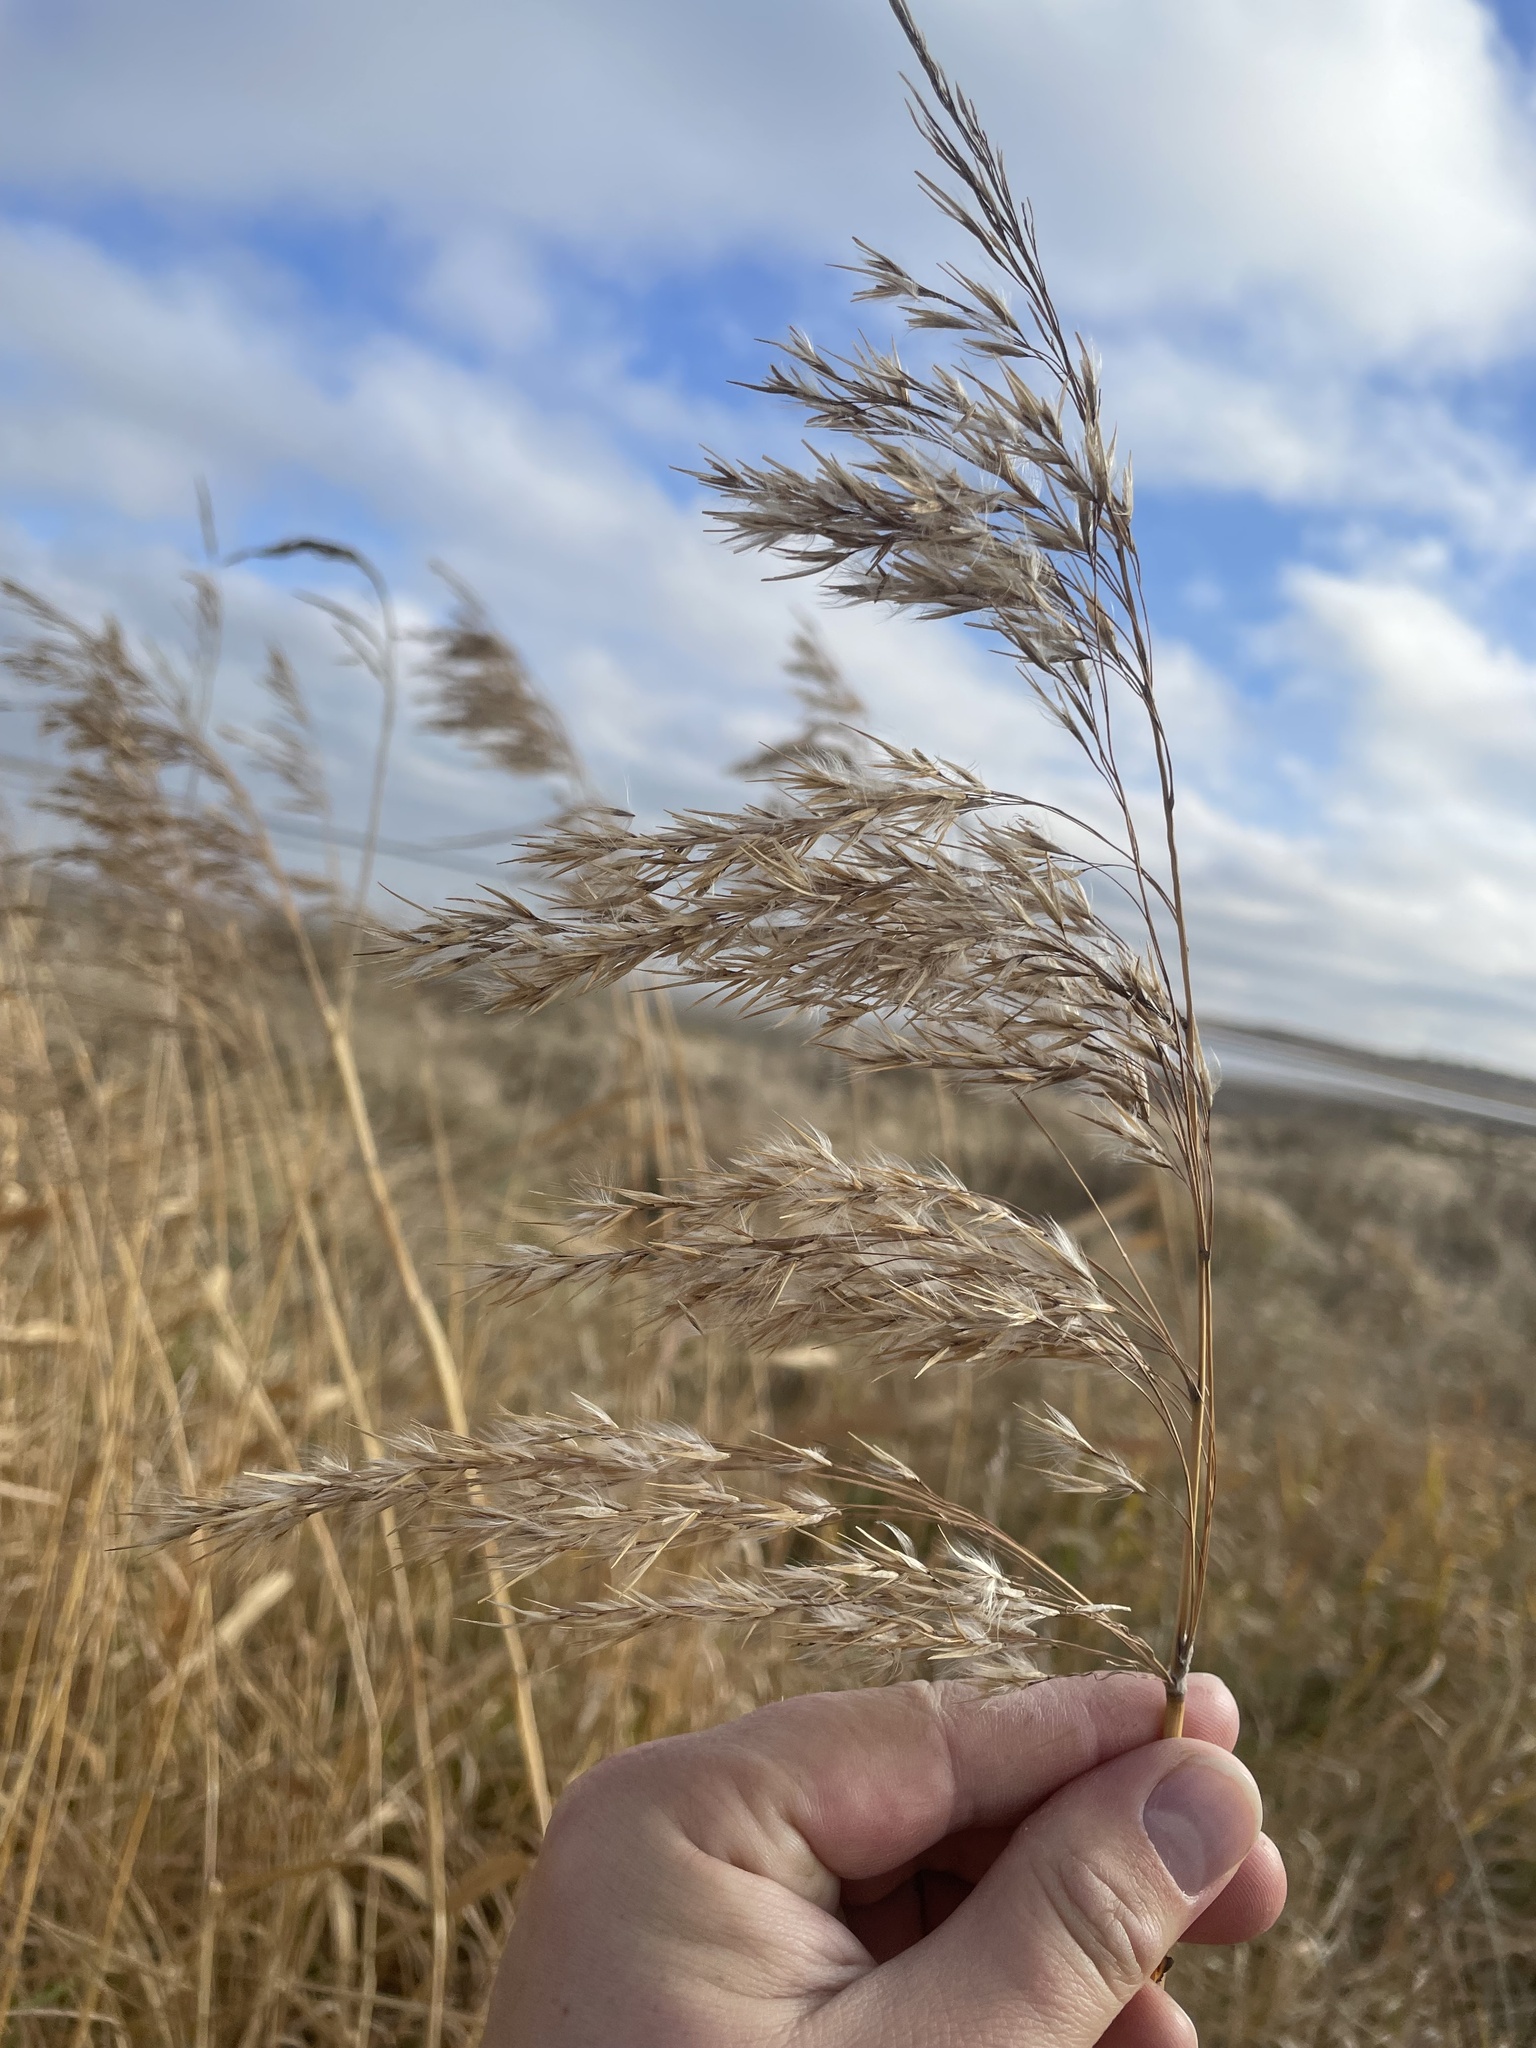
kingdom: Plantae
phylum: Tracheophyta
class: Liliopsida
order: Poales
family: Poaceae
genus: Phragmites
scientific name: Phragmites australis
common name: Common reed
